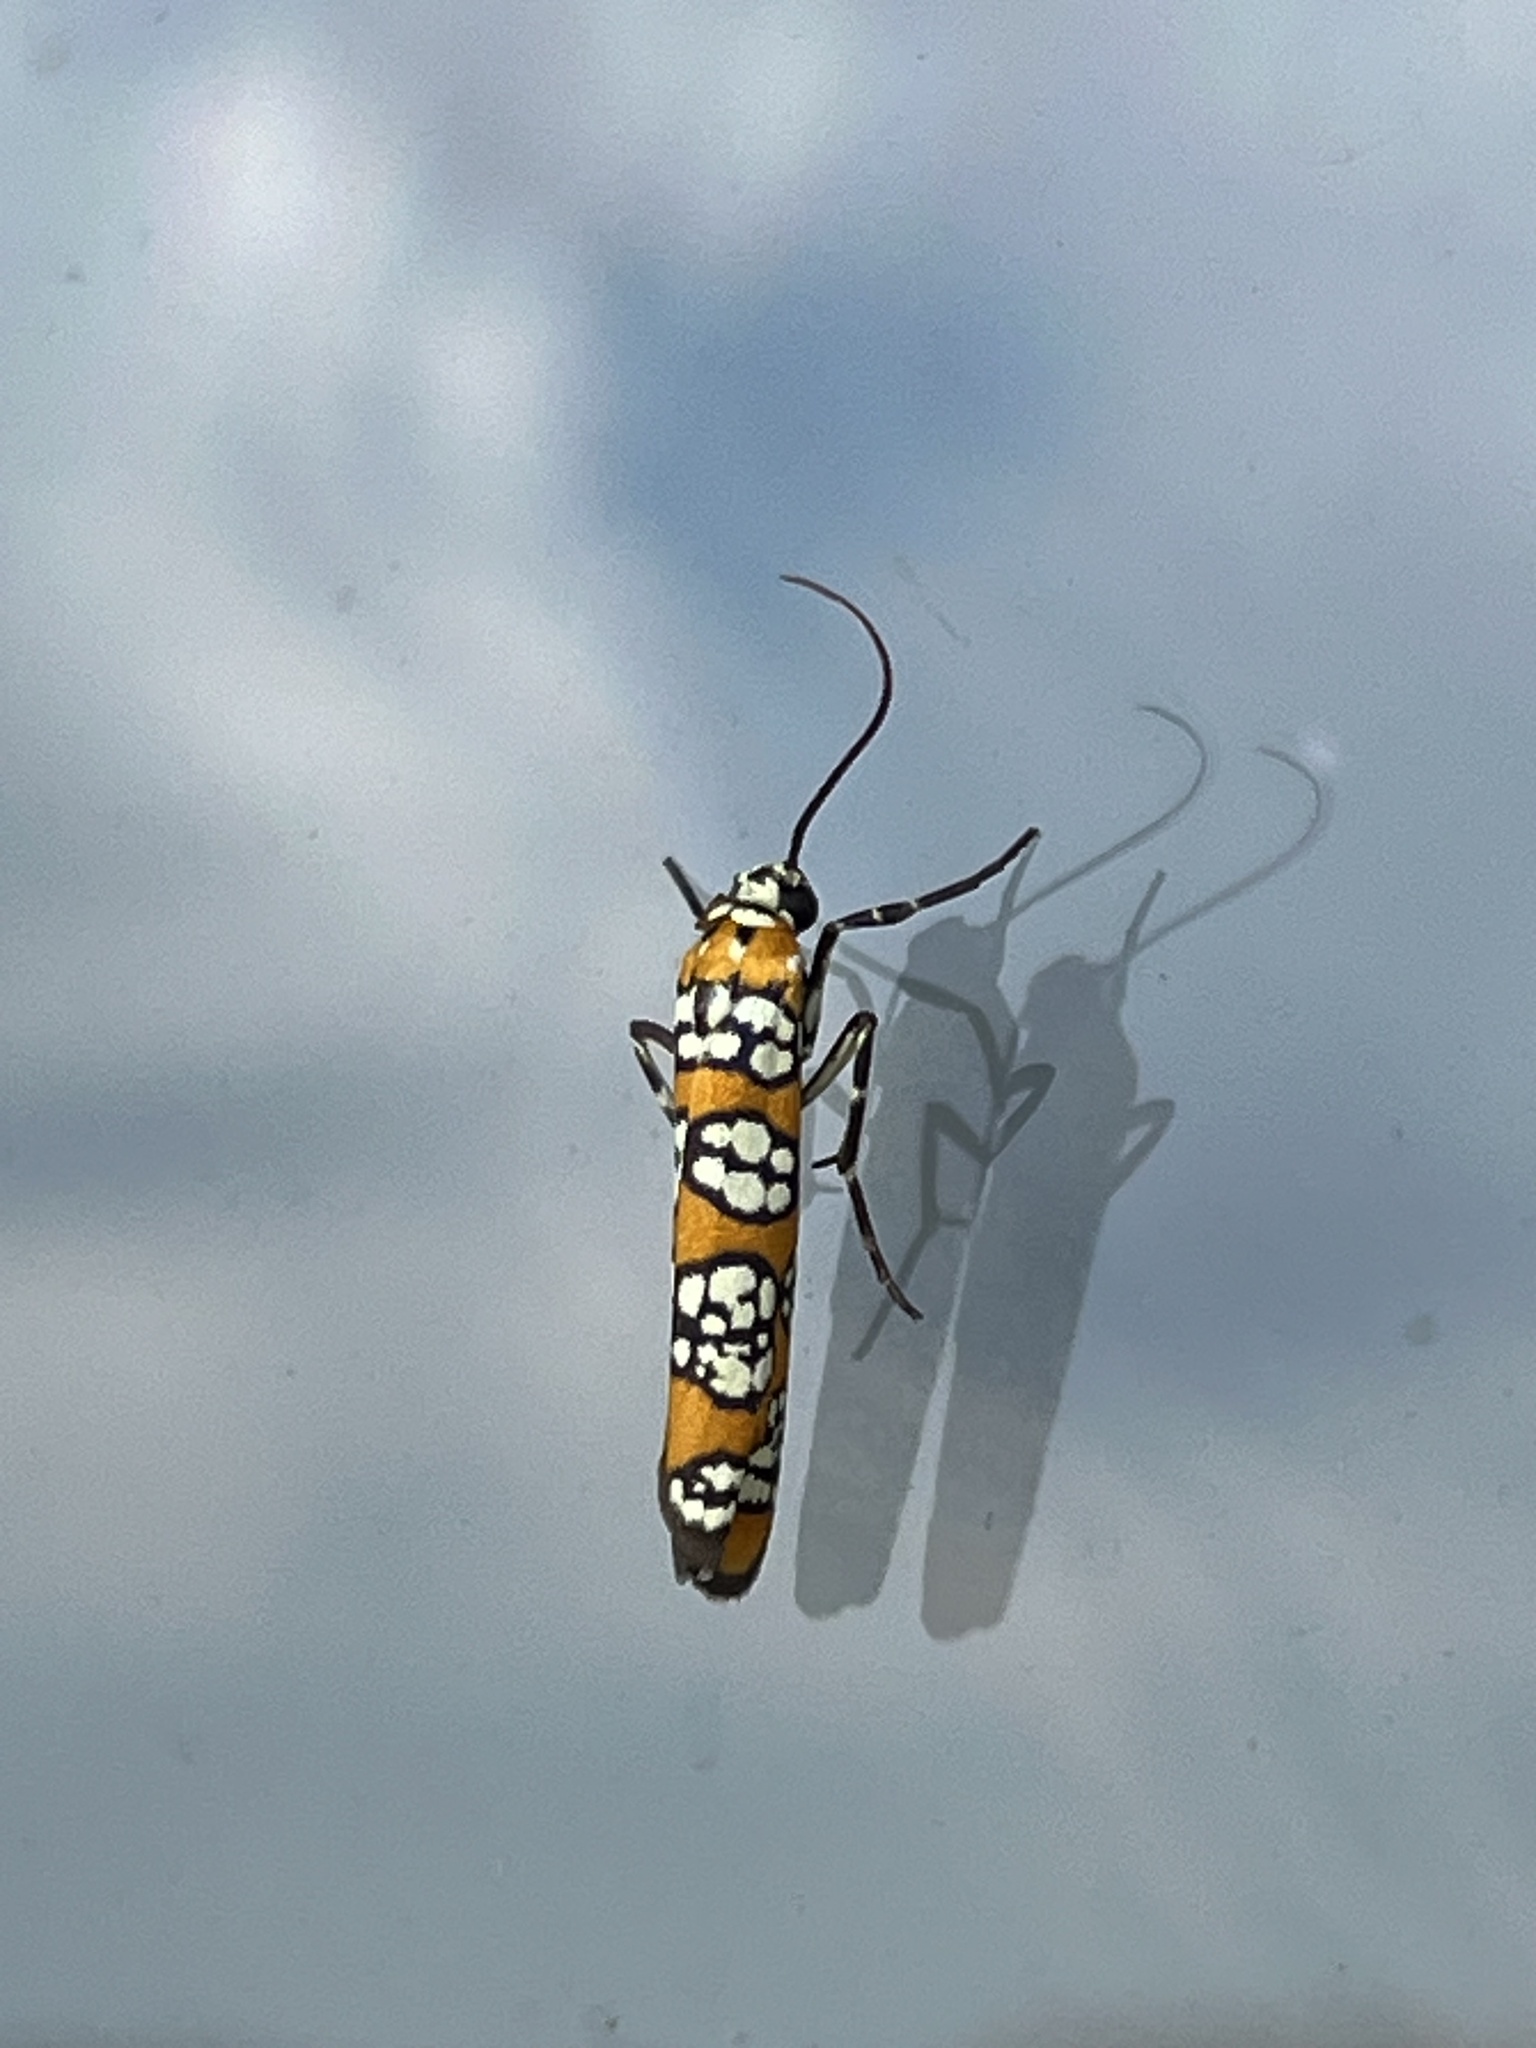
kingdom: Animalia
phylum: Arthropoda
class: Insecta
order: Lepidoptera
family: Attevidae
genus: Atteva
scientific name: Atteva punctella
